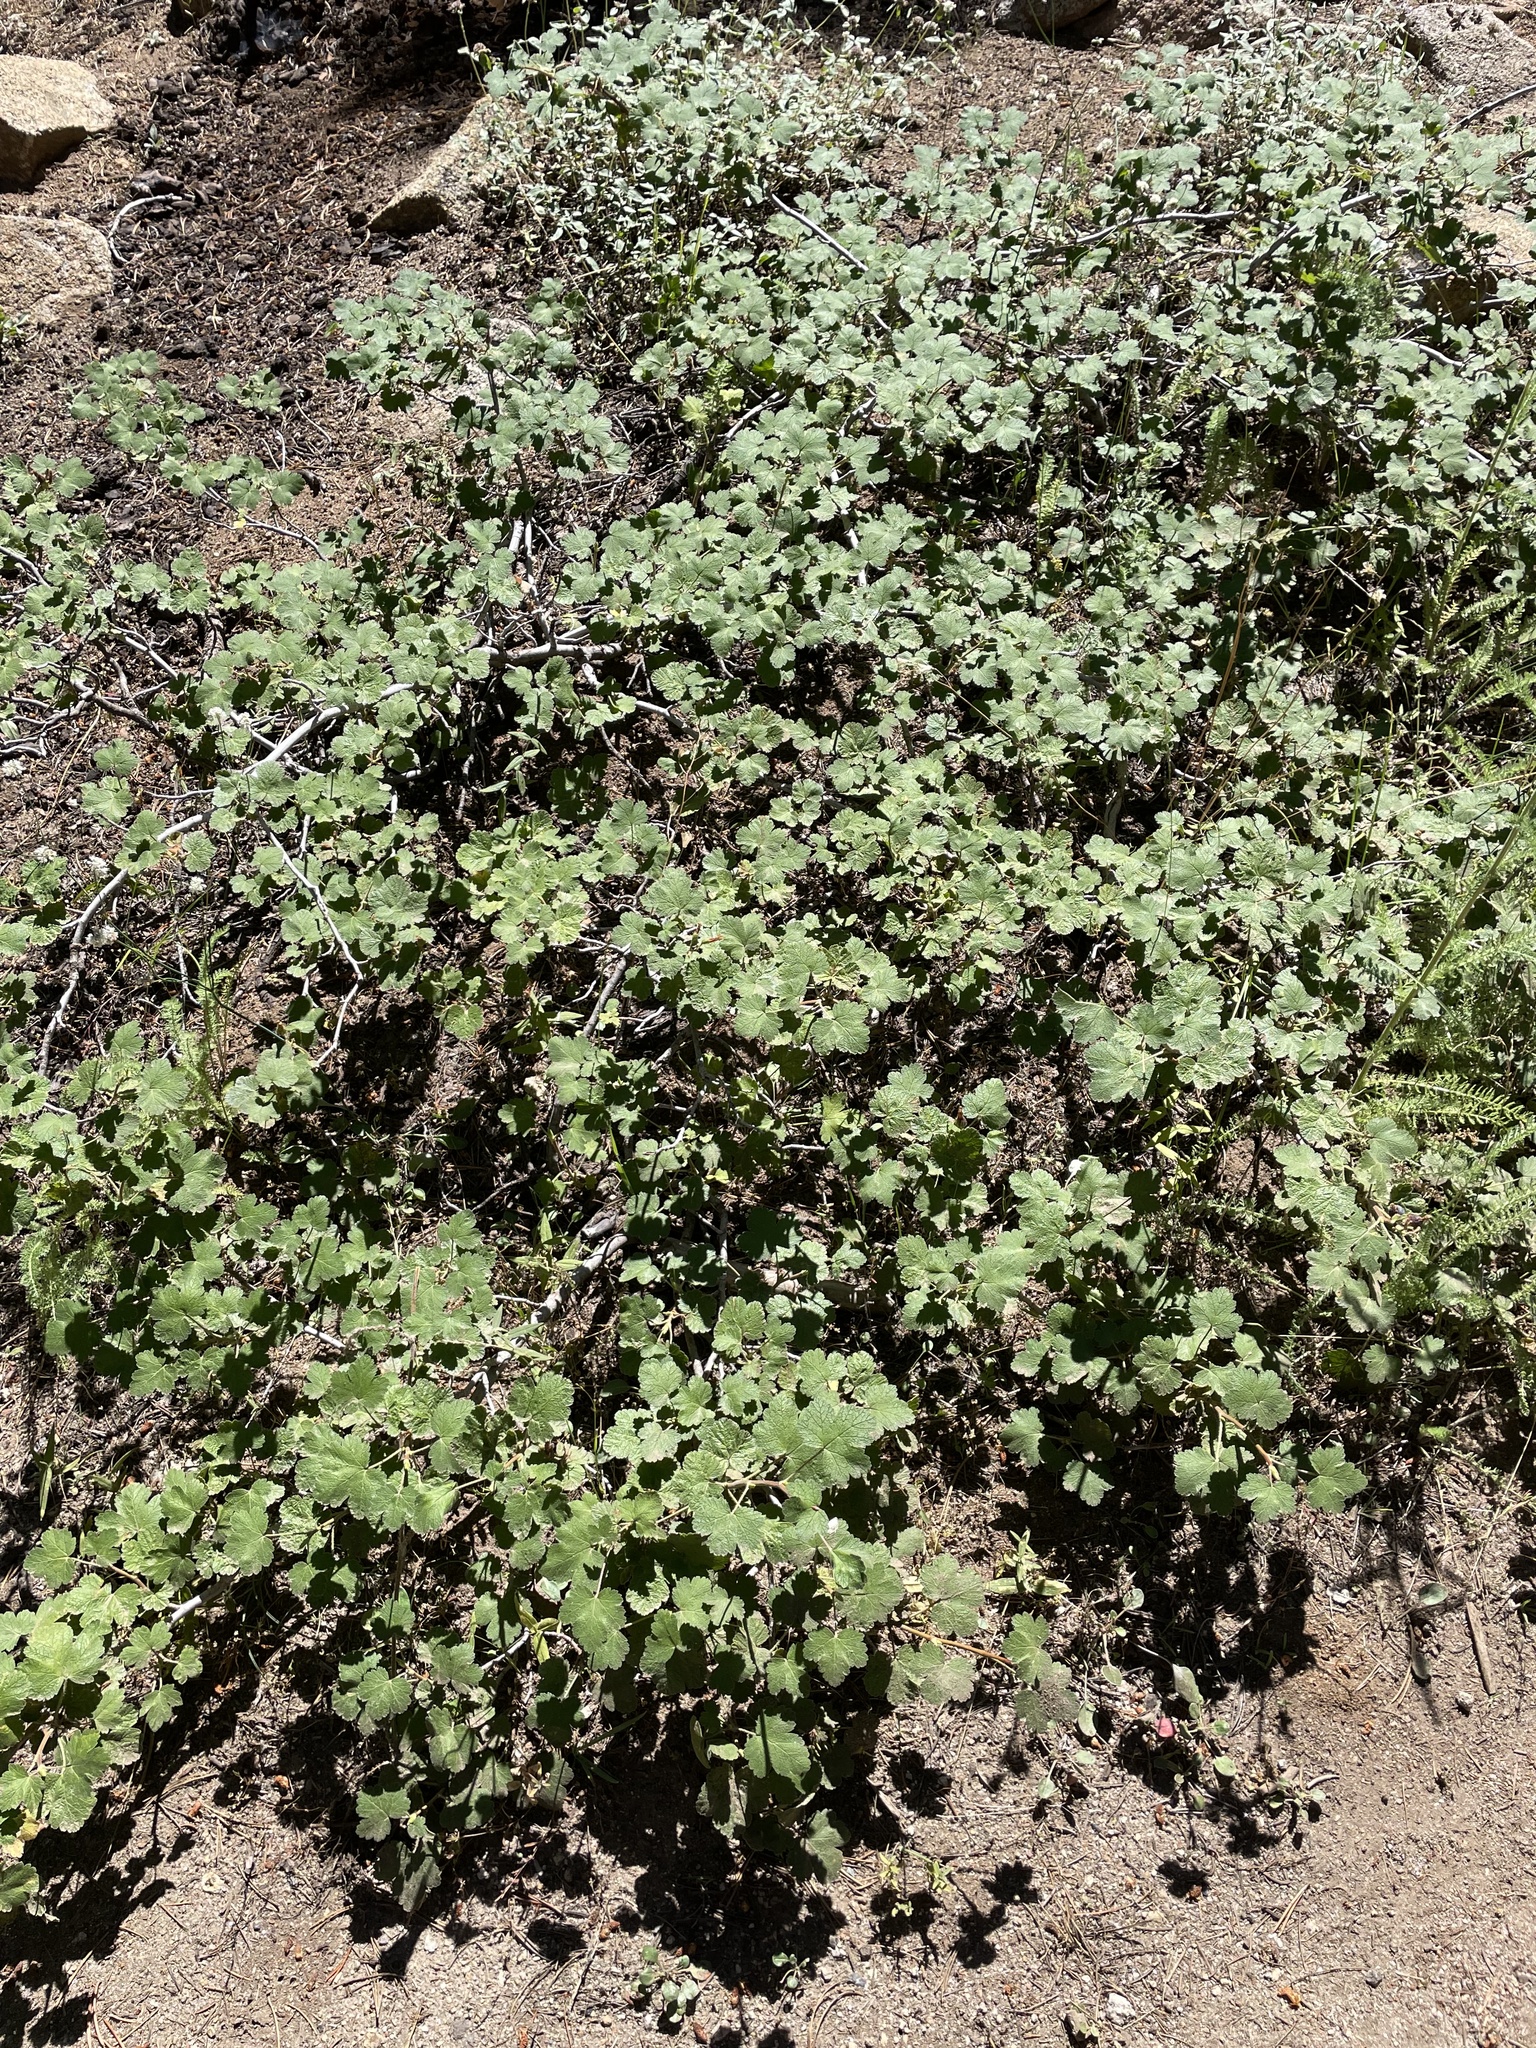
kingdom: Plantae
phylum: Tracheophyta
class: Magnoliopsida
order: Saxifragales
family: Grossulariaceae
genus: Ribes
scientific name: Ribes viscosissimum
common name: Sticky currant
